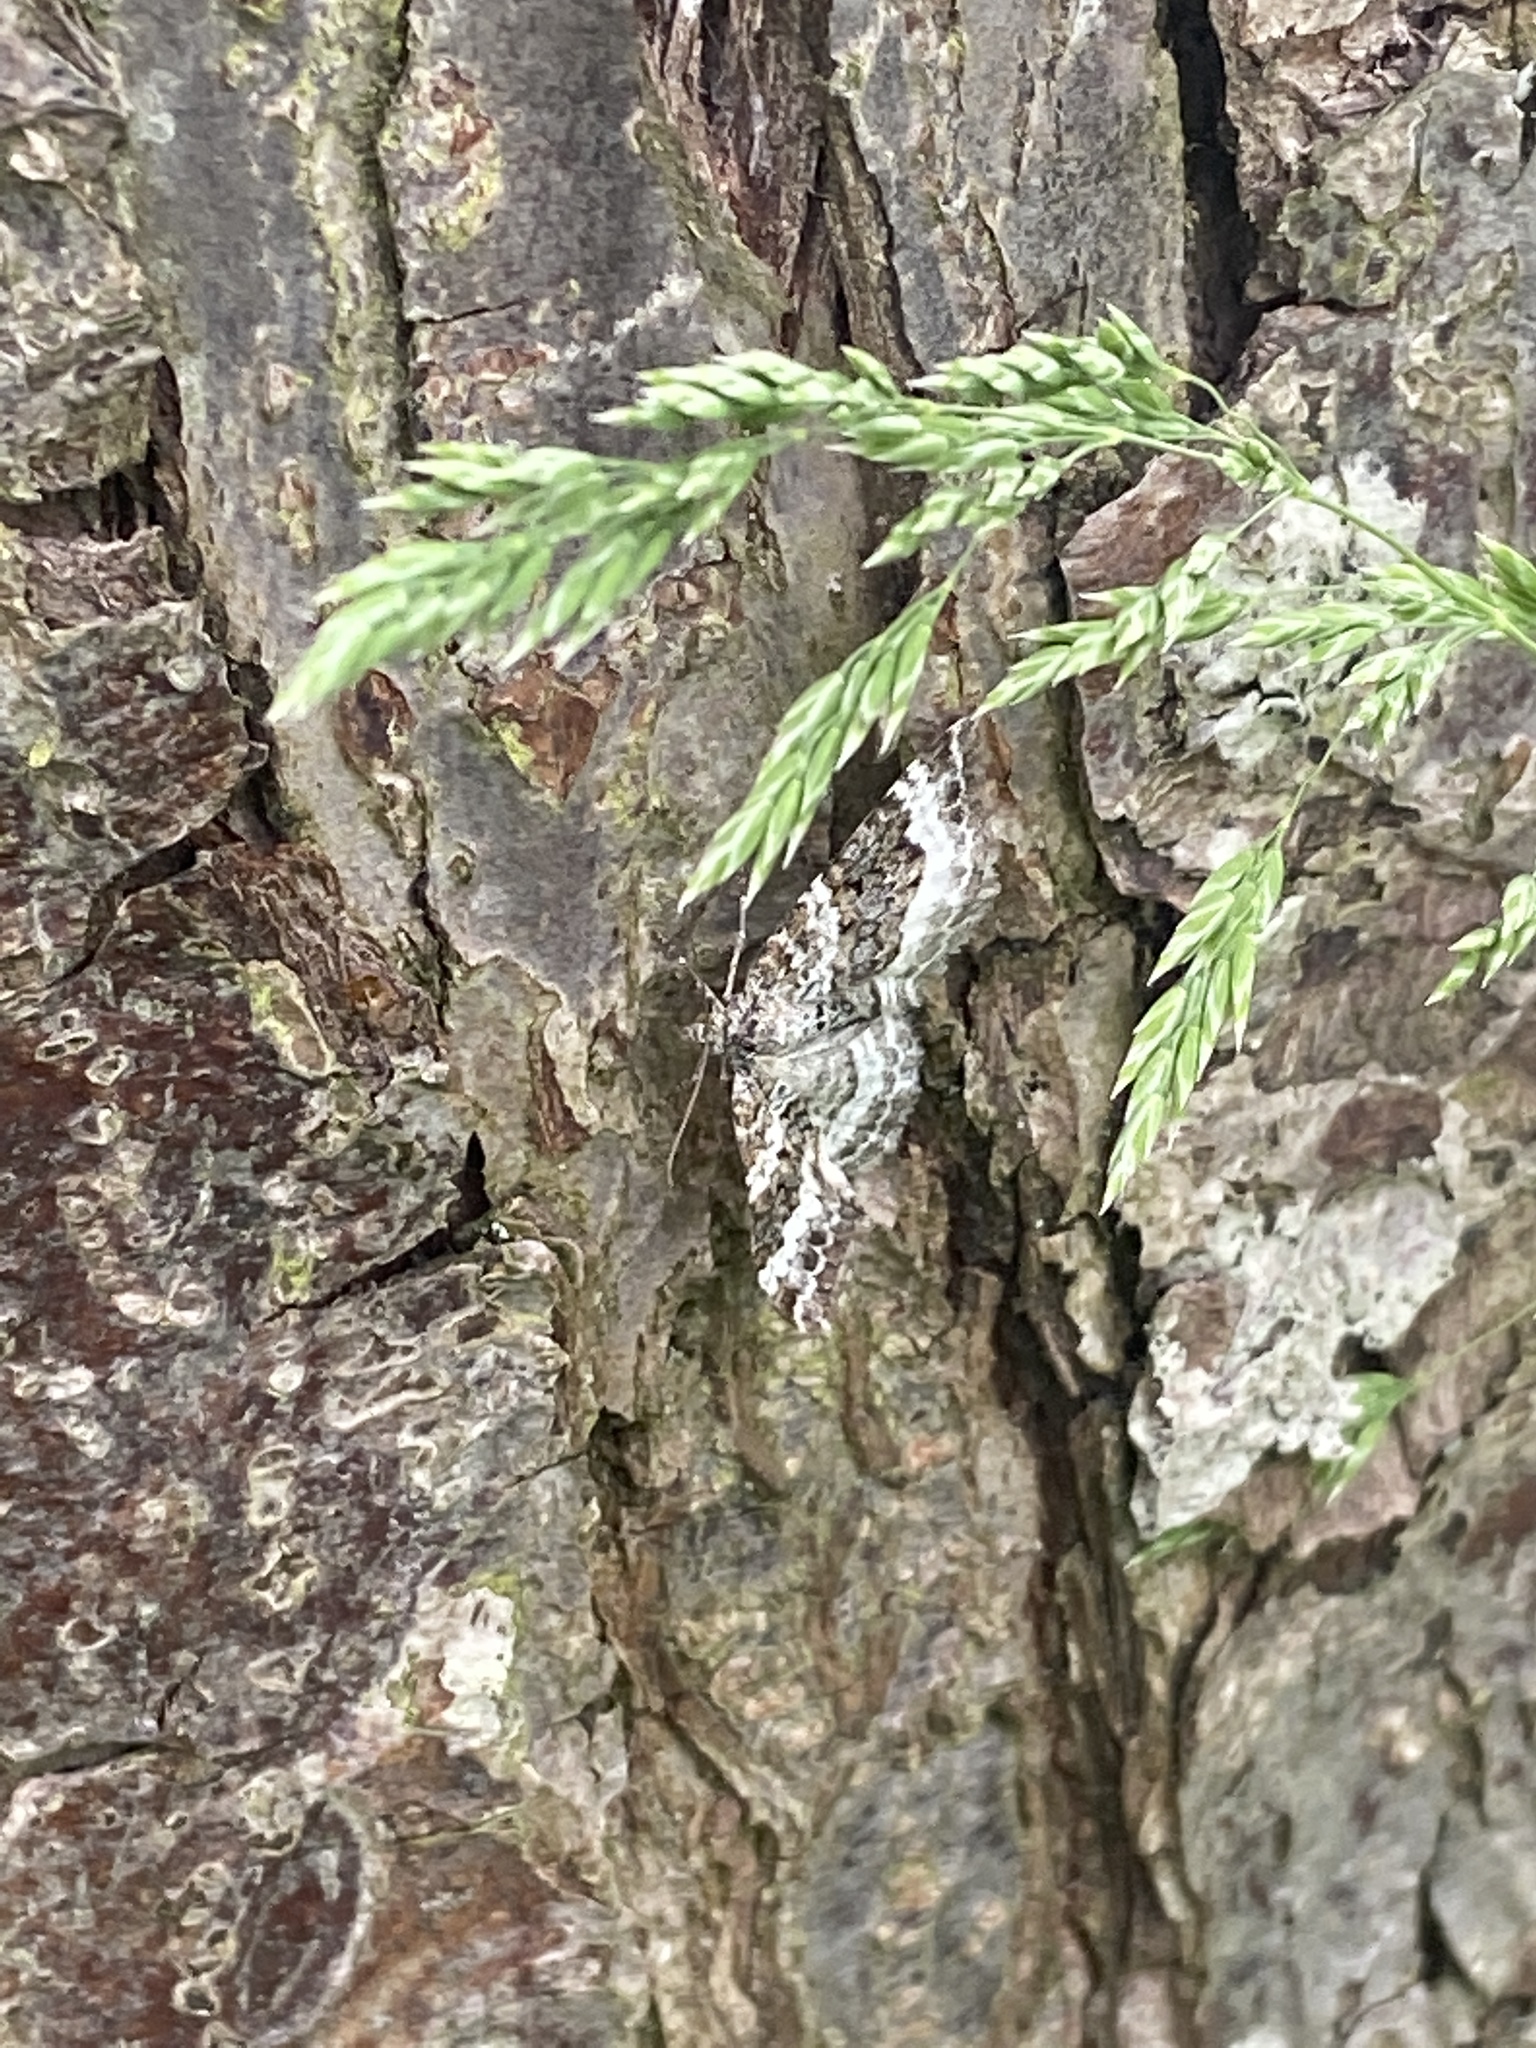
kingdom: Animalia
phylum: Arthropoda
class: Insecta
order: Lepidoptera
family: Geometridae
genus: Epirrhoe
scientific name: Epirrhoe alternata
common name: Common carpet
